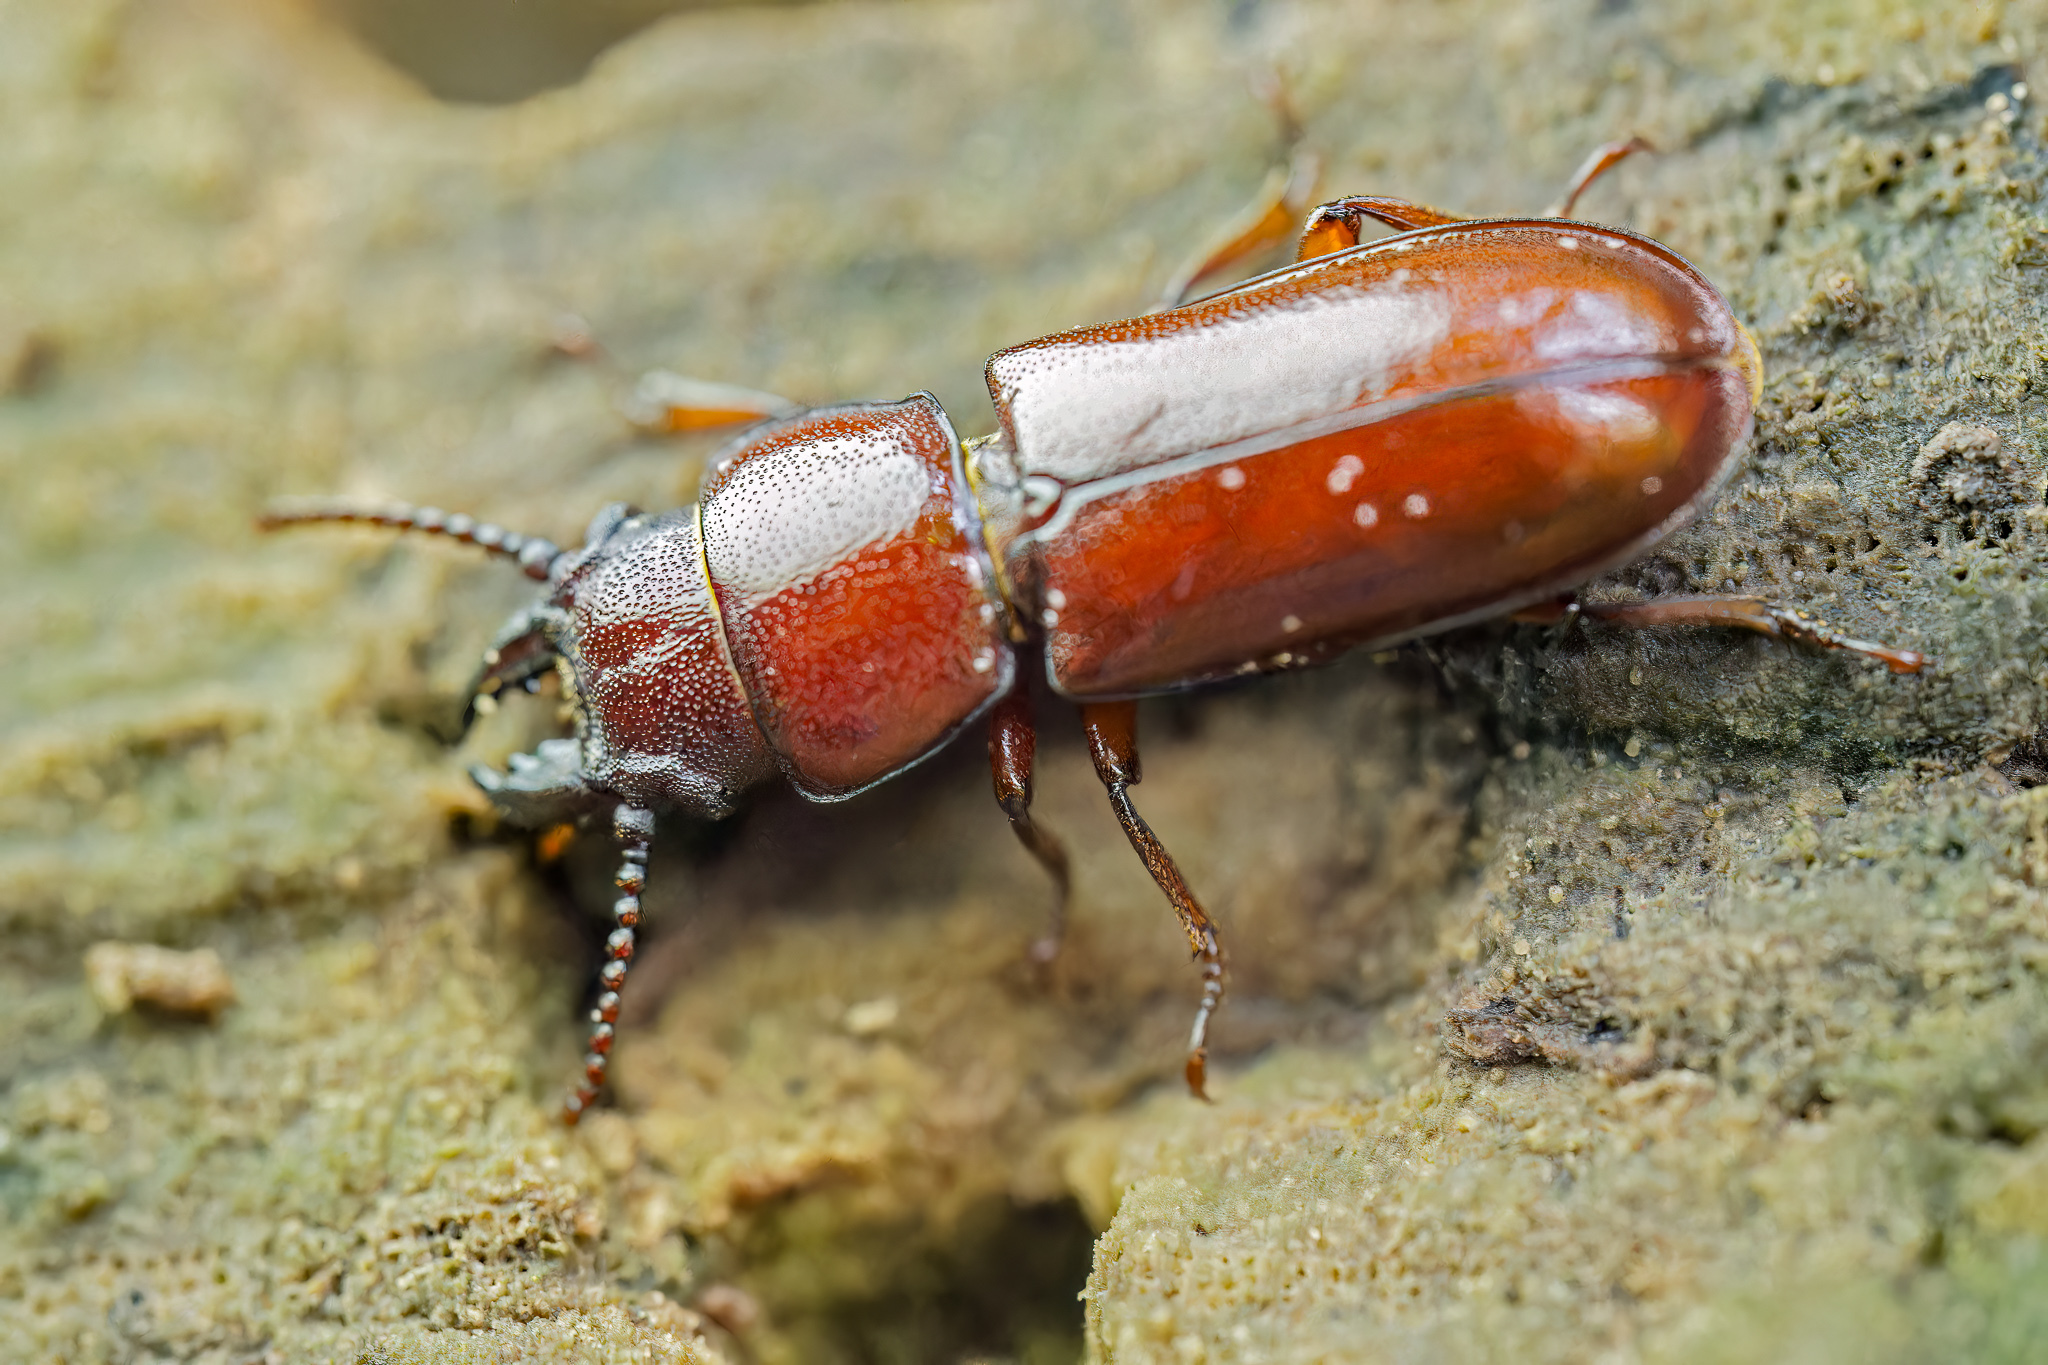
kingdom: Animalia
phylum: Arthropoda
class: Insecta
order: Coleoptera
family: Cerambycidae
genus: Neandra
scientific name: Neandra brunnea
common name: Pole borer
